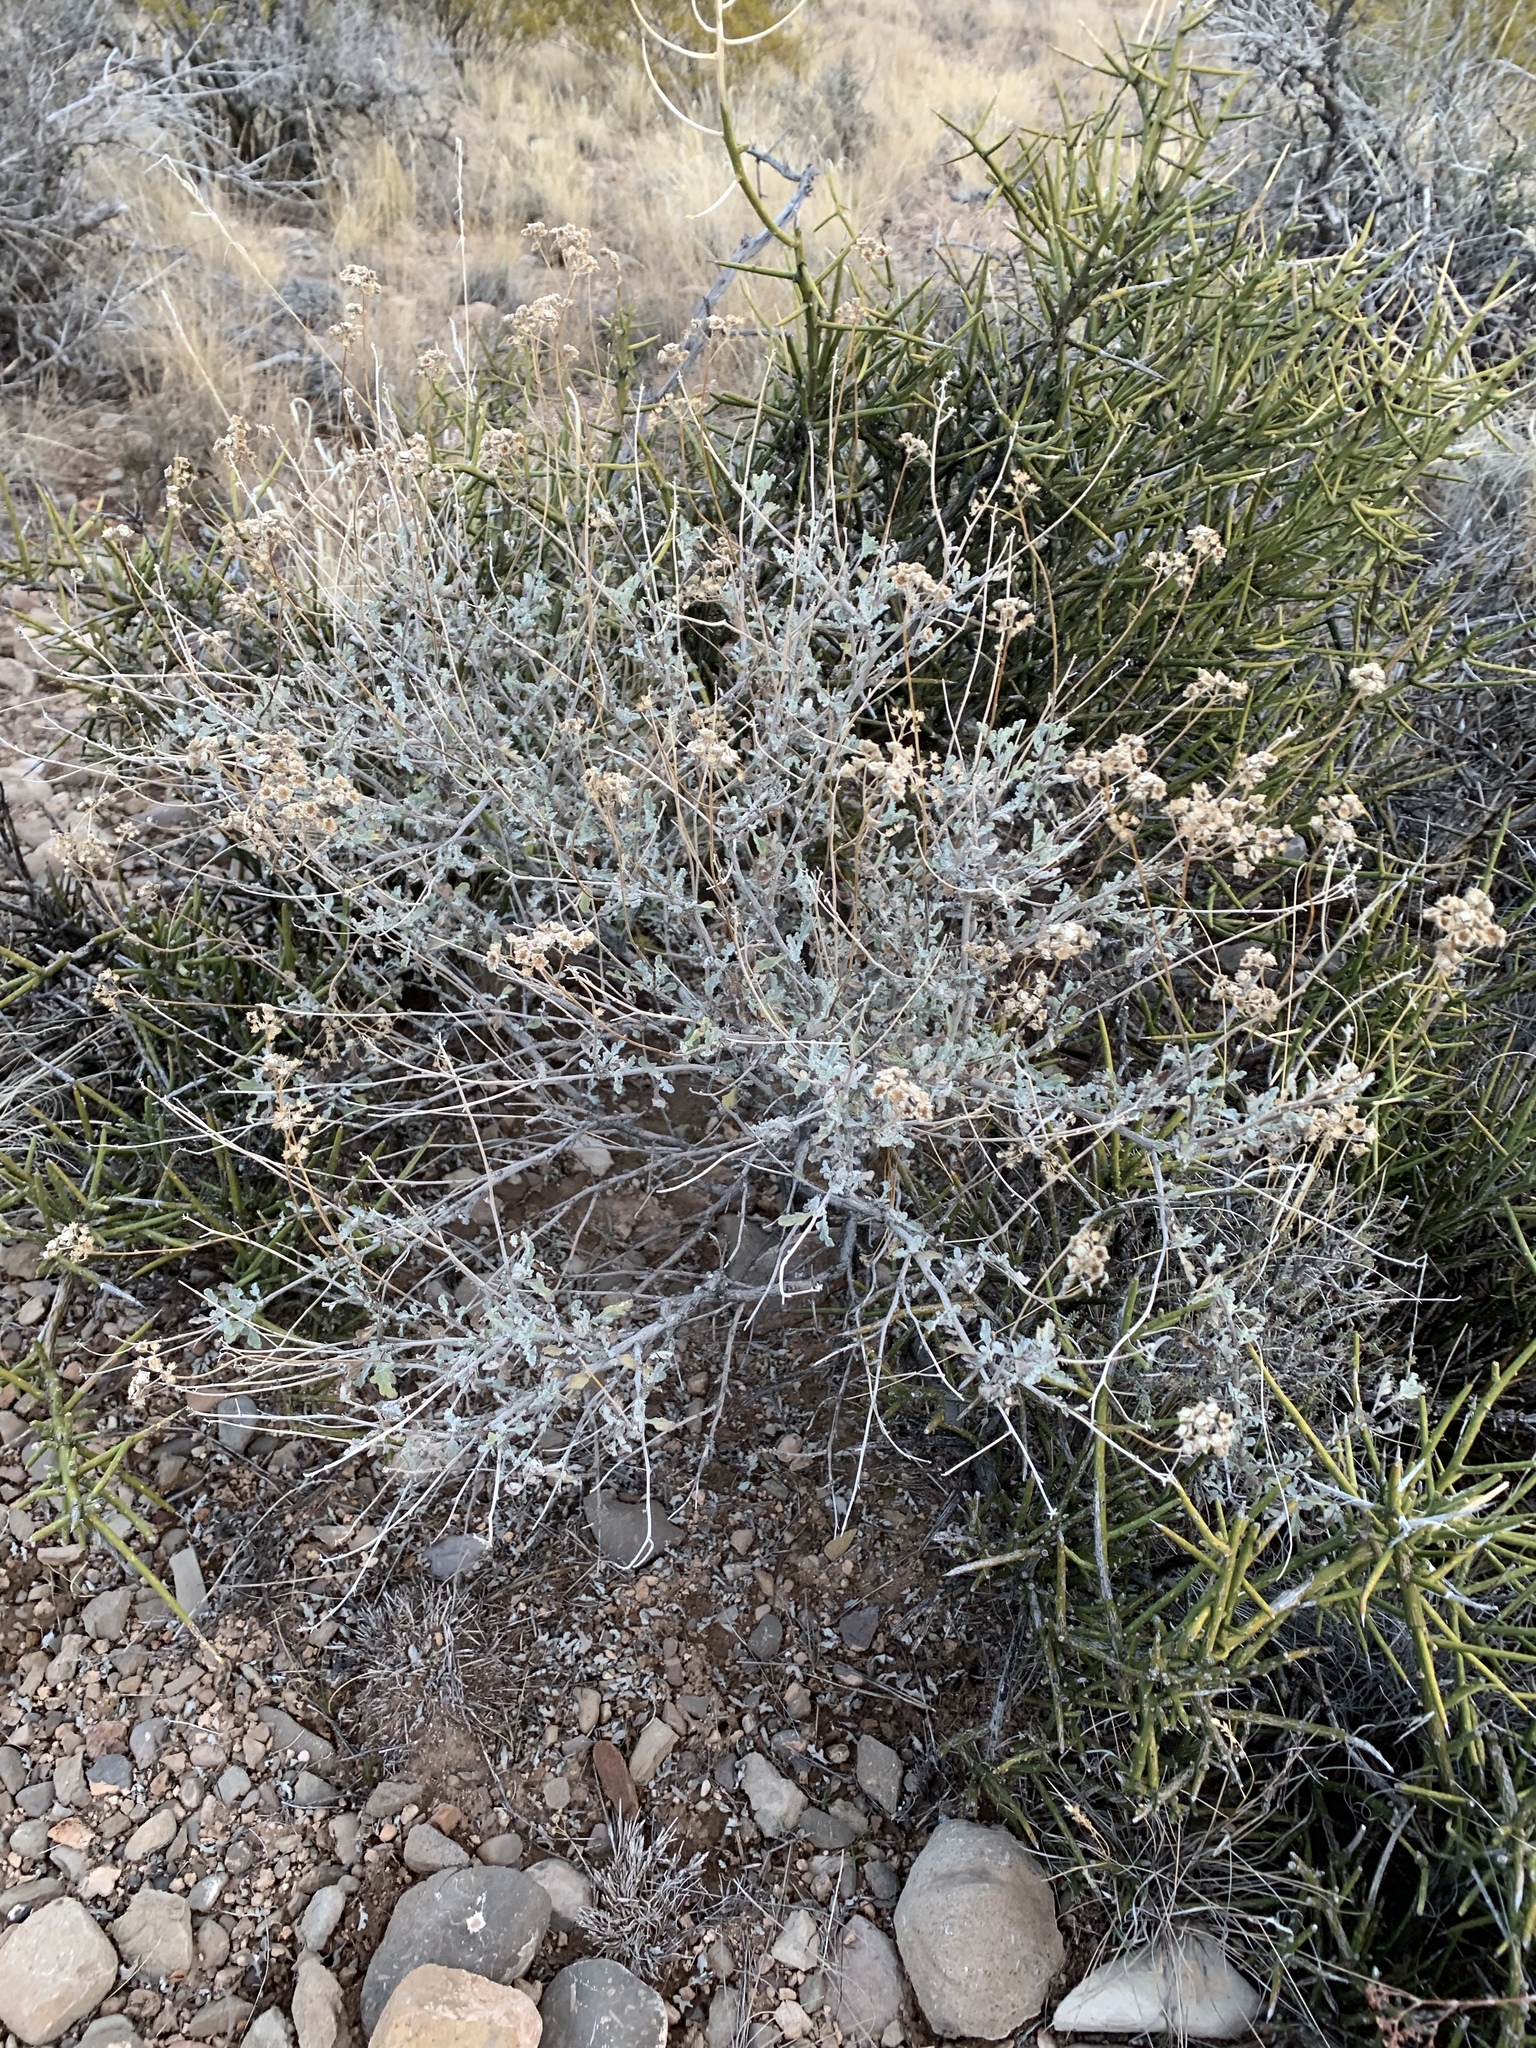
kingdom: Plantae
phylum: Tracheophyta
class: Magnoliopsida
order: Asterales
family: Asteraceae
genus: Parthenium
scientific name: Parthenium incanum
